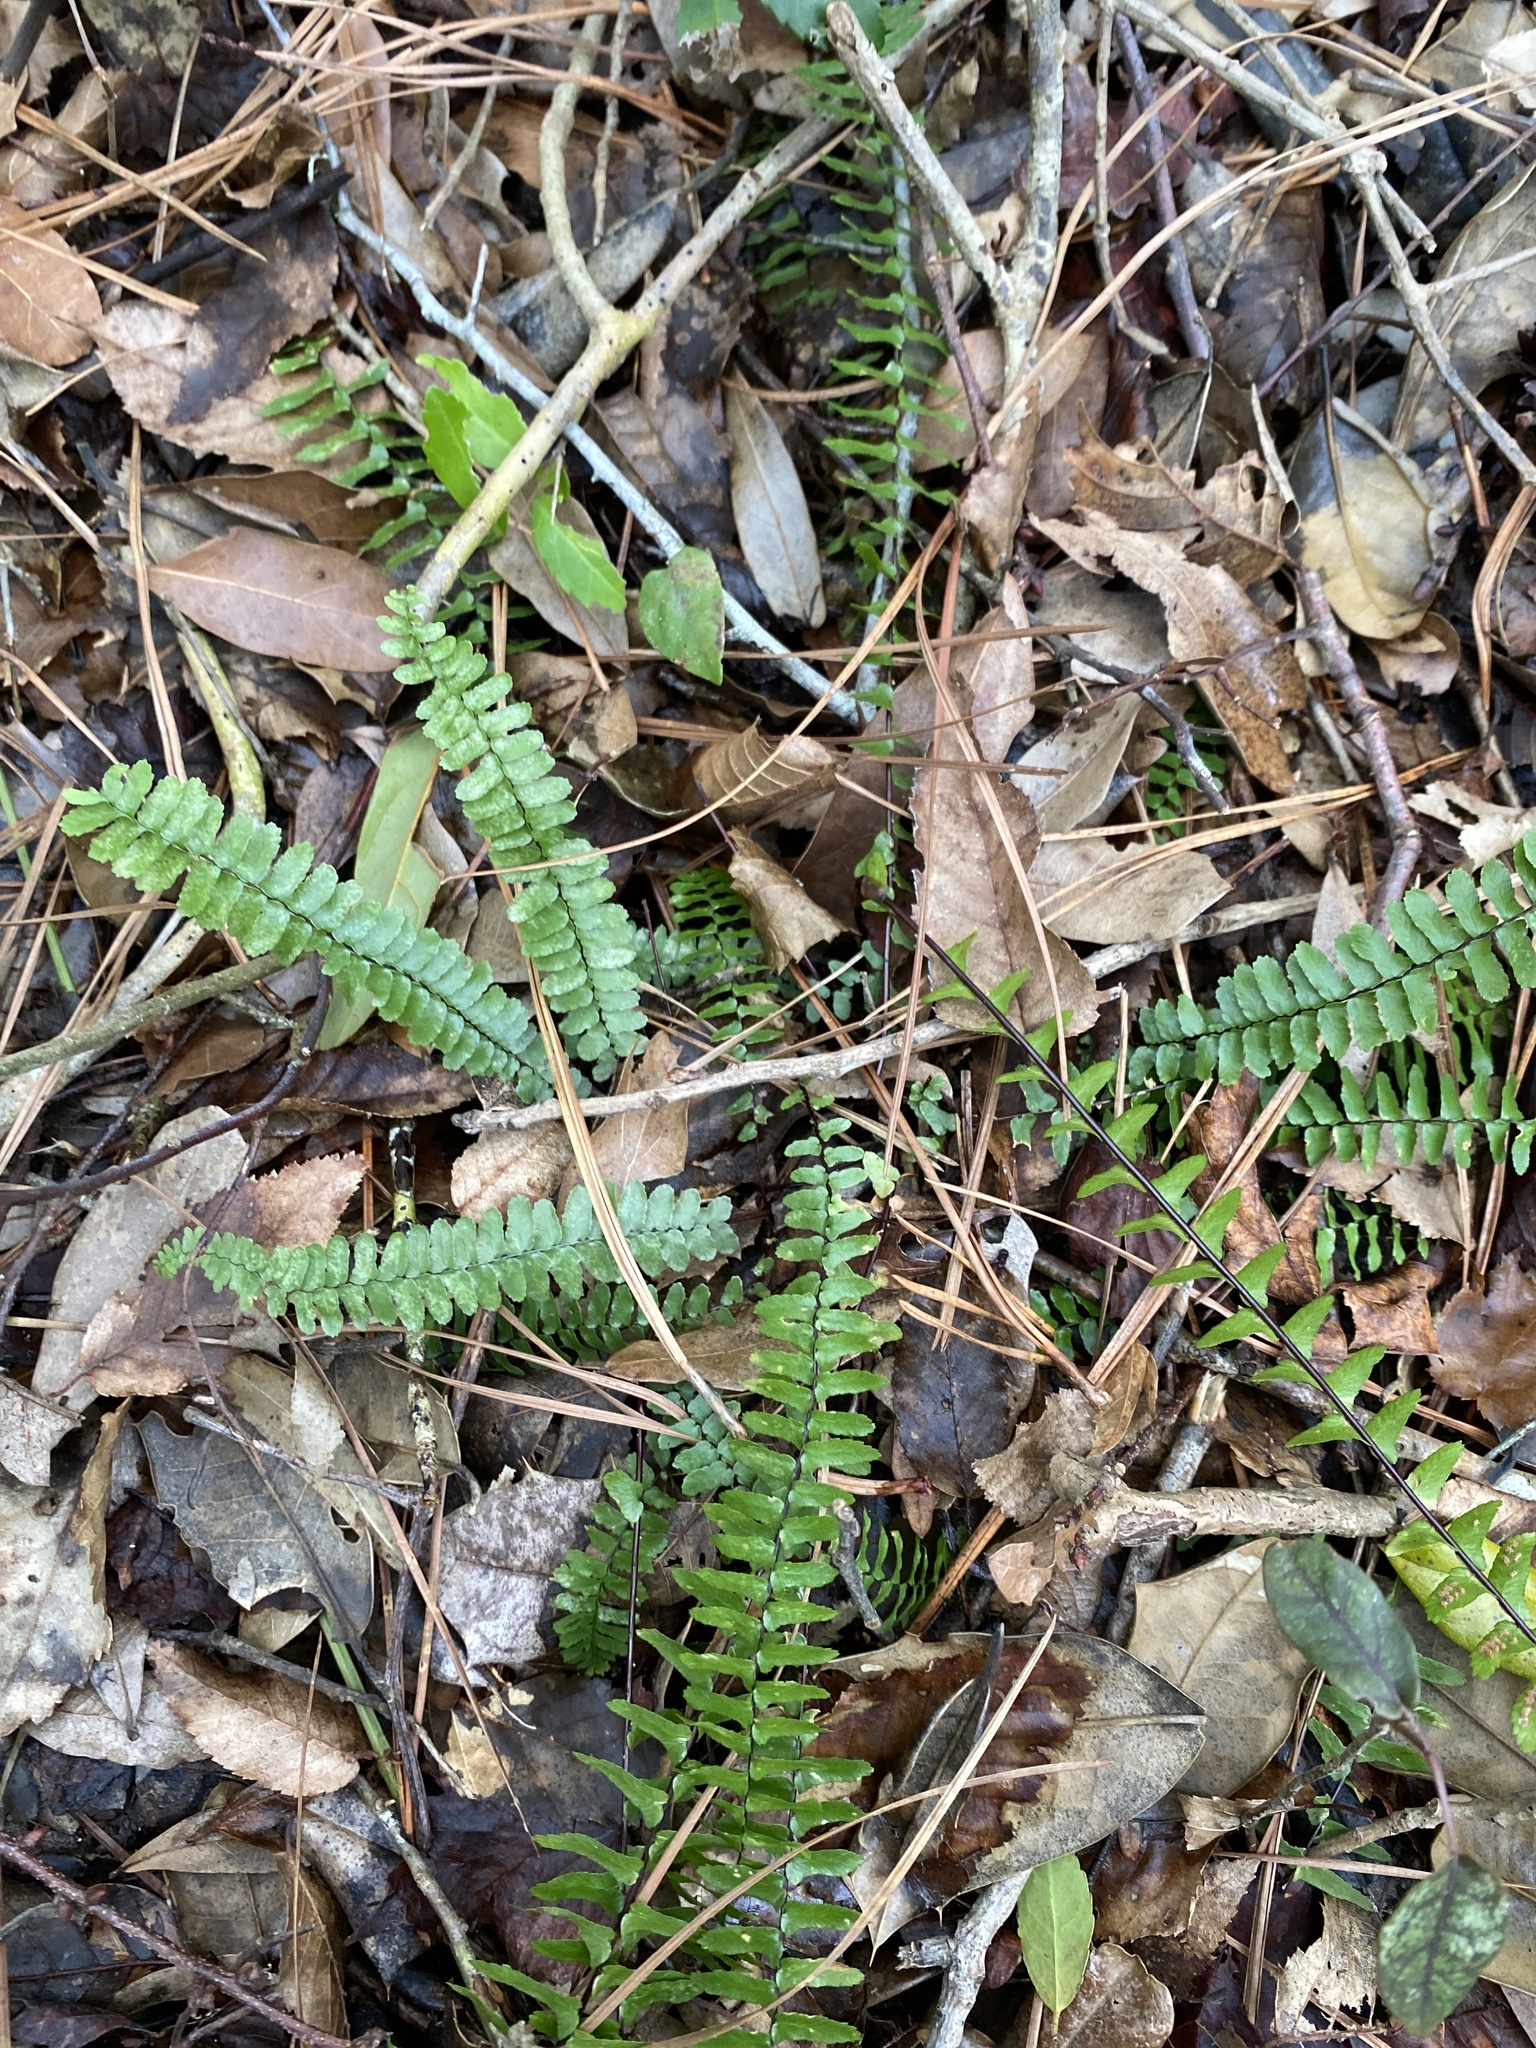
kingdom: Plantae
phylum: Tracheophyta
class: Polypodiopsida
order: Polypodiales
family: Aspleniaceae
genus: Asplenium
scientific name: Asplenium platyneuron
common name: Ebony spleenwort
